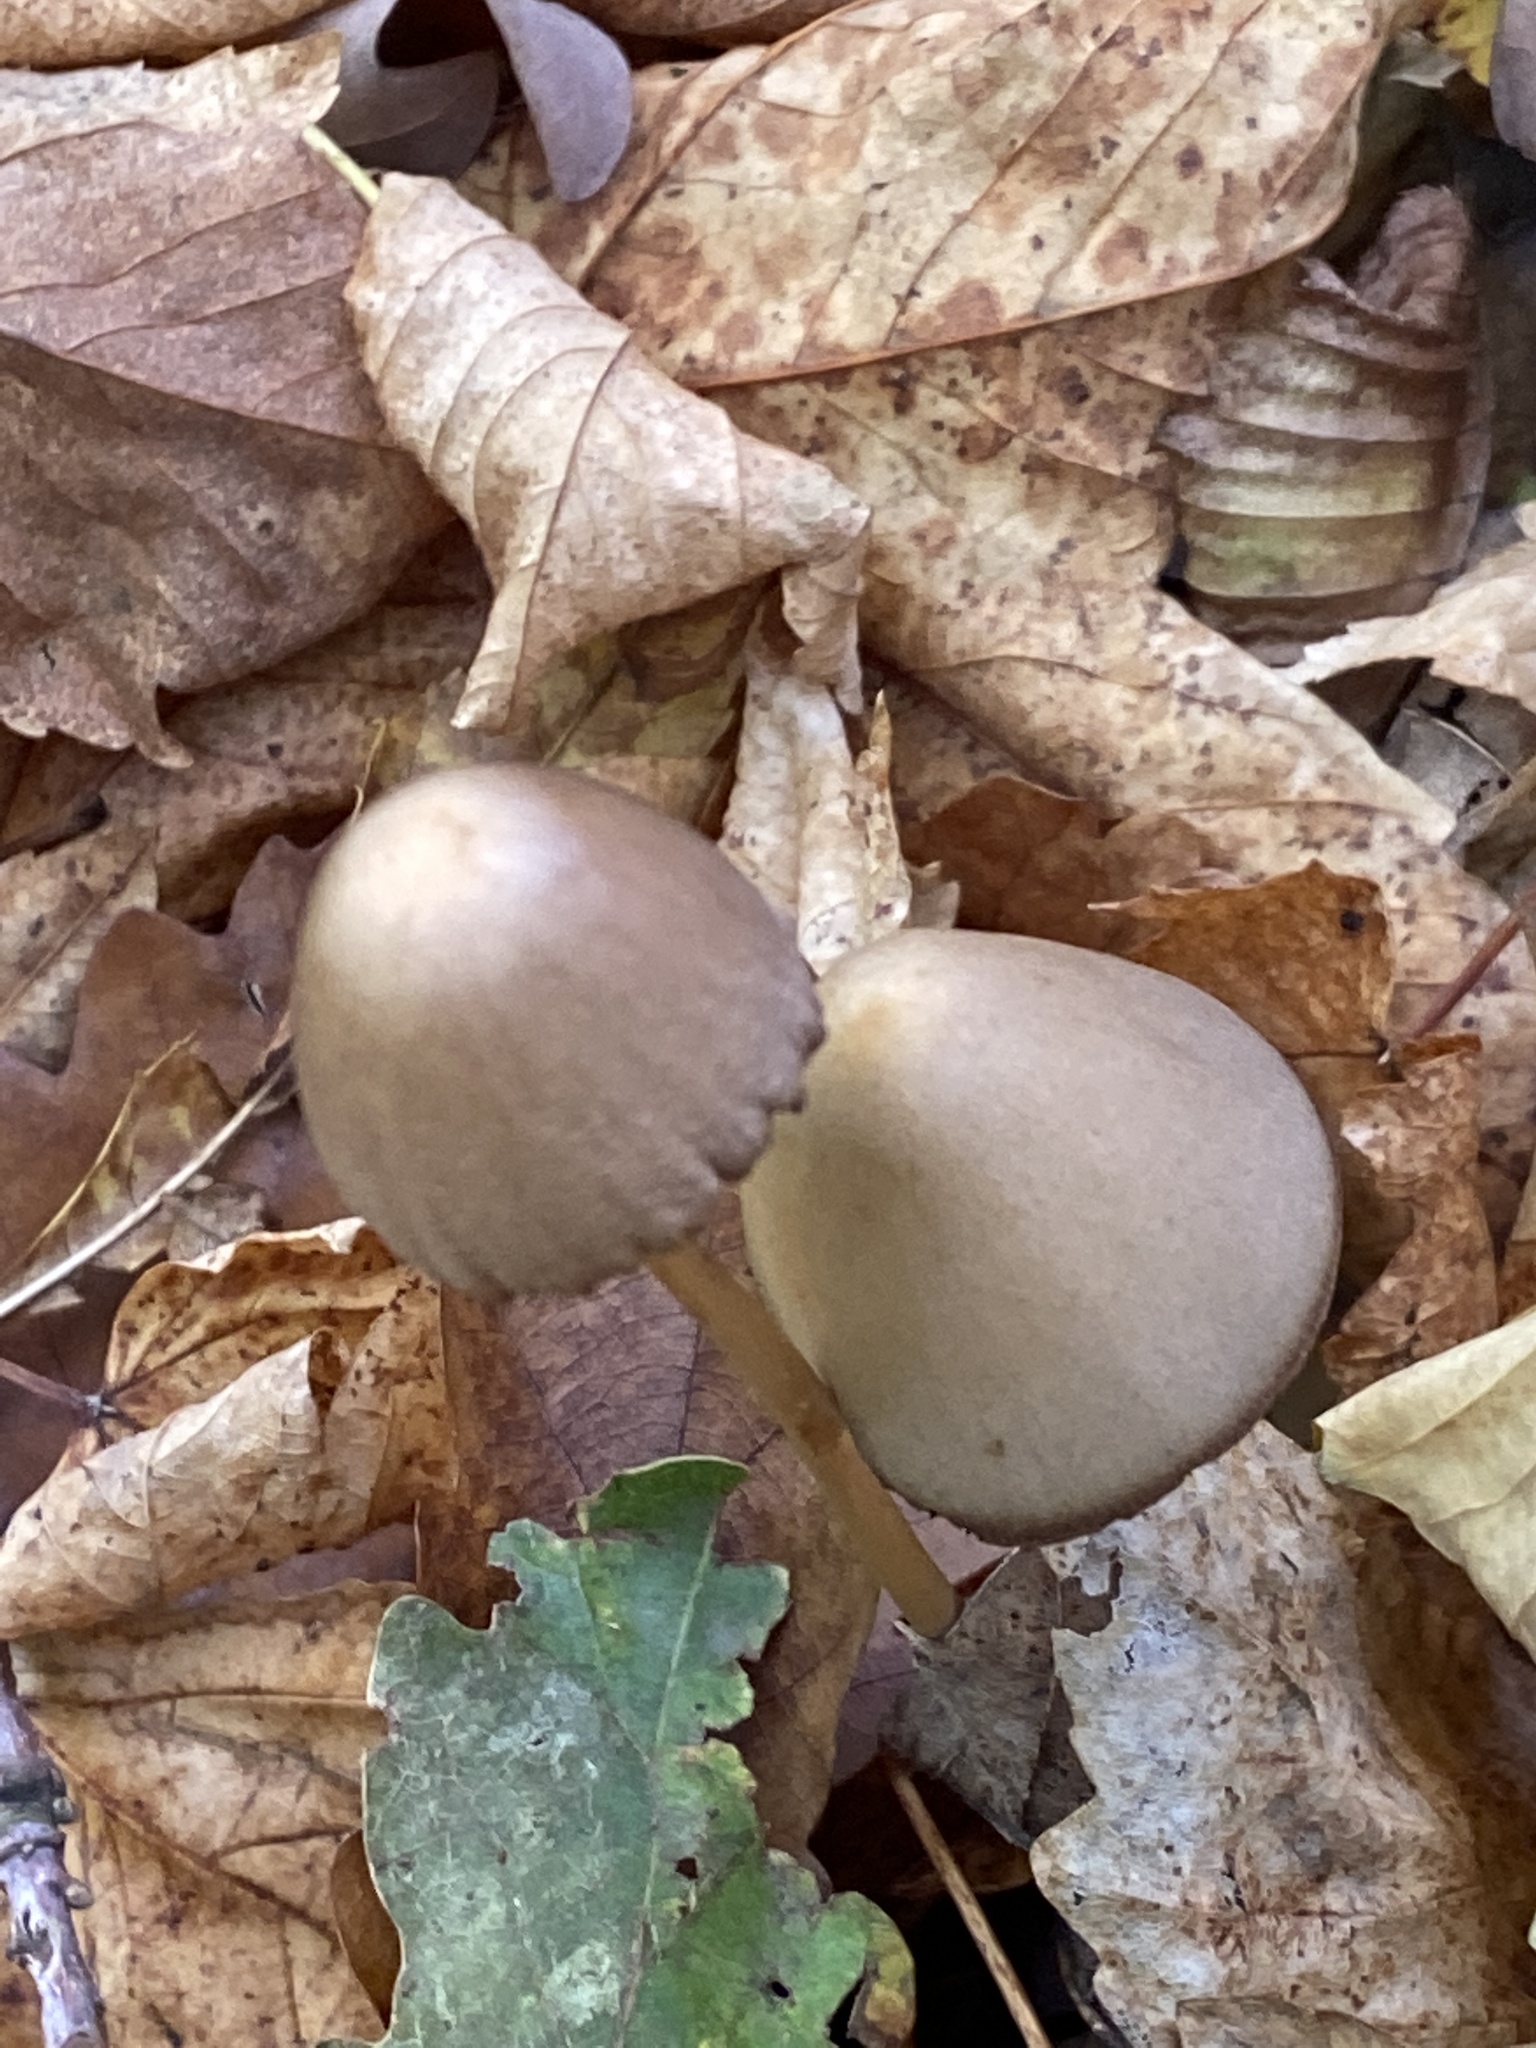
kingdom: Fungi
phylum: Basidiomycota
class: Agaricomycetes
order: Agaricales
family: Bolbitiaceae
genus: Panaeolus
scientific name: Panaeolus papilionaceus
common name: Petticoat mottlegill
